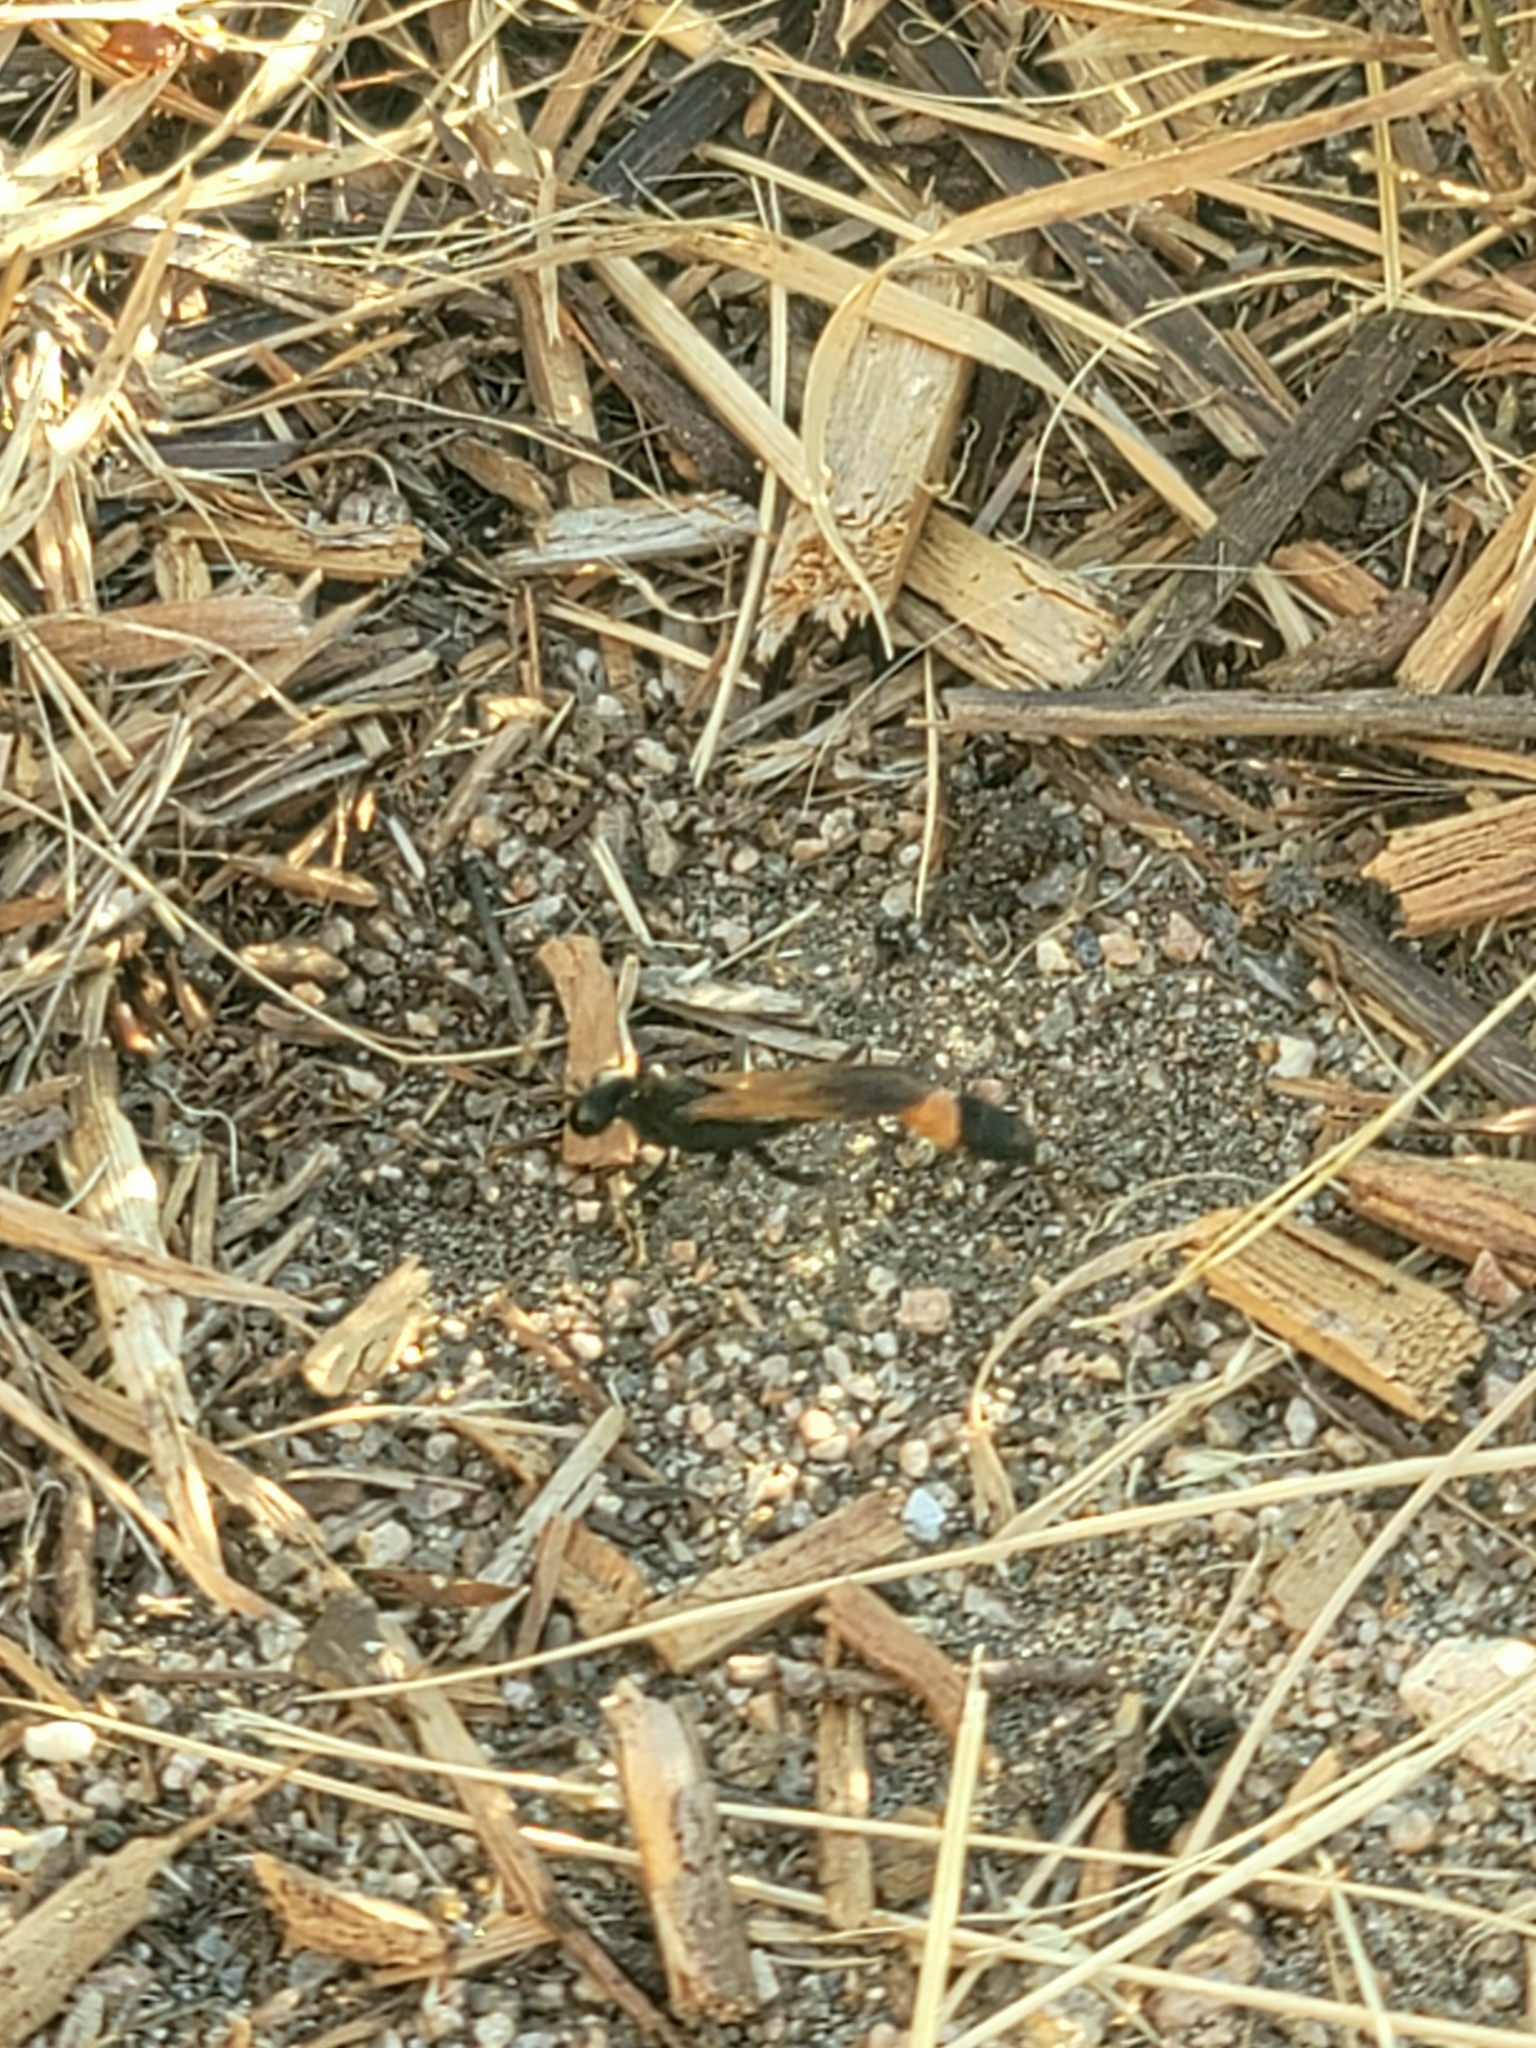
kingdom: Animalia
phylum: Arthropoda
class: Insecta
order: Hymenoptera
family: Sphecidae
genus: Ammophila
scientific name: Ammophila
